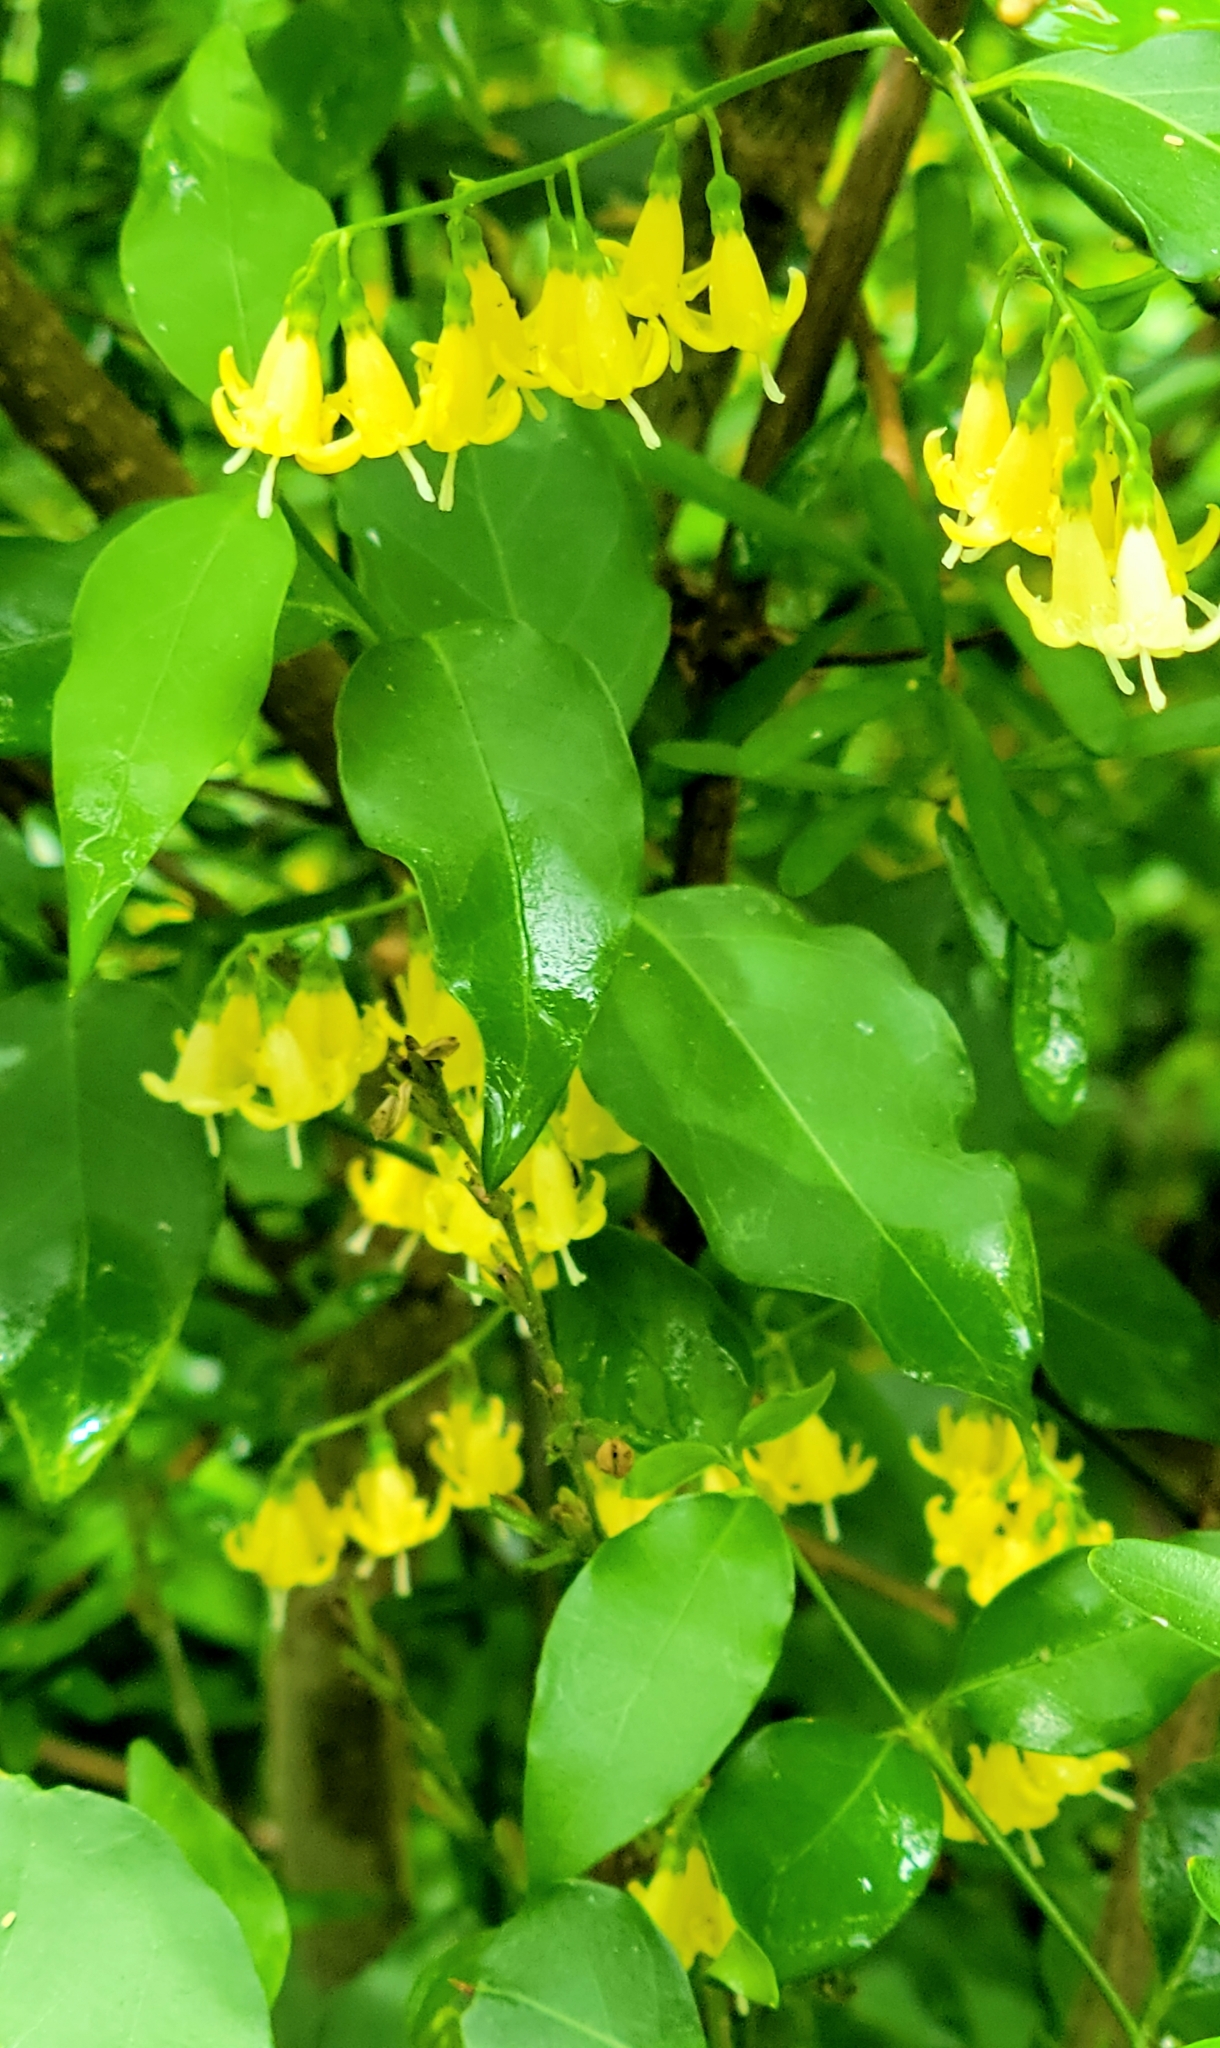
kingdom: Plantae
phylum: Tracheophyta
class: Magnoliopsida
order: Gentianales
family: Rubiaceae
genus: Chiococca
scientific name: Chiococca alba
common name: Snowberry
